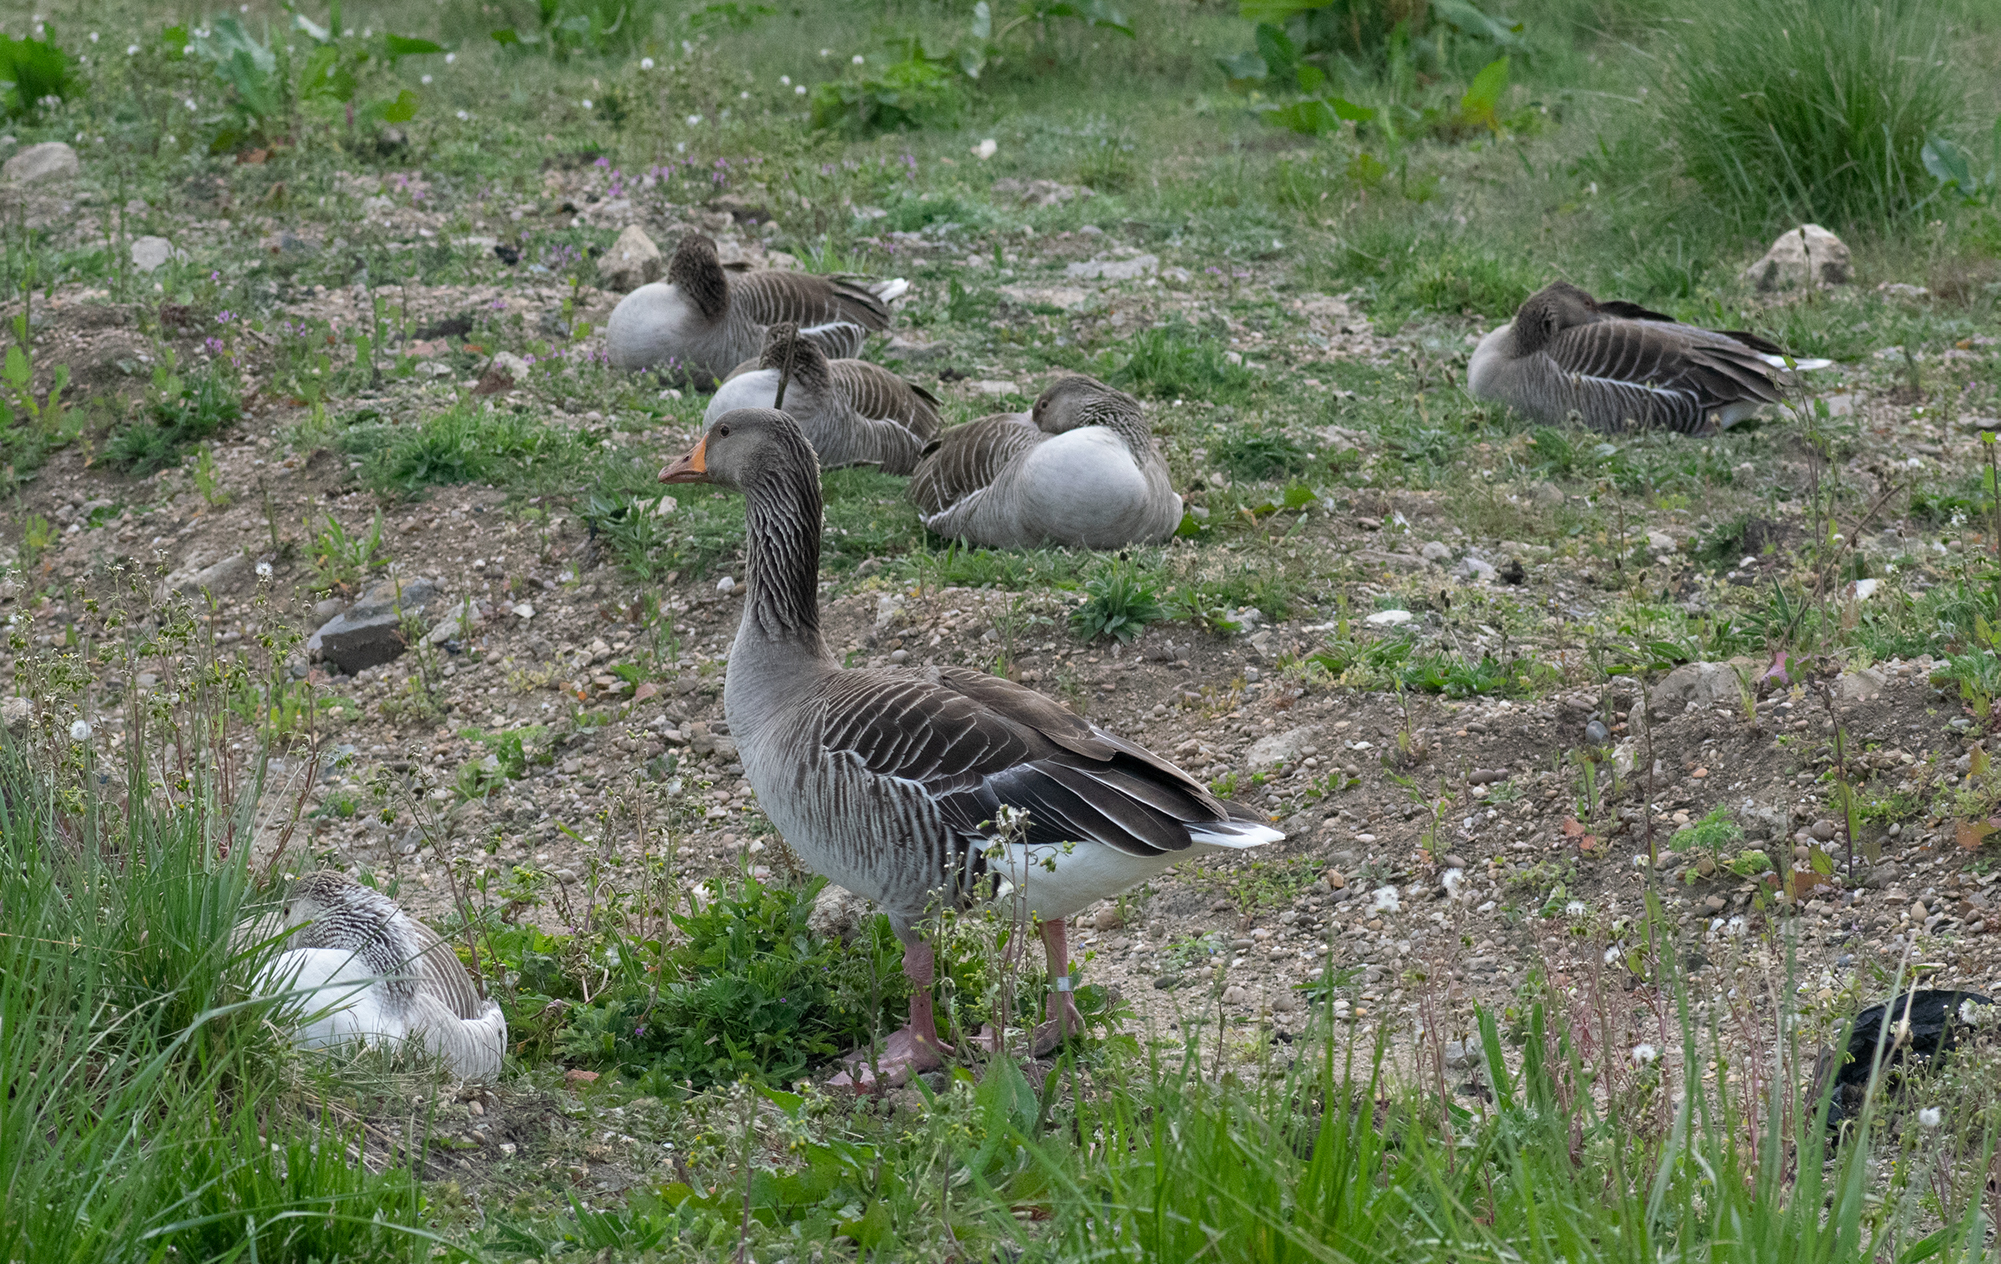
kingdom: Animalia
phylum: Chordata
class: Aves
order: Anseriformes
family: Anatidae
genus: Anser
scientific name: Anser anser
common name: Greylag goose
